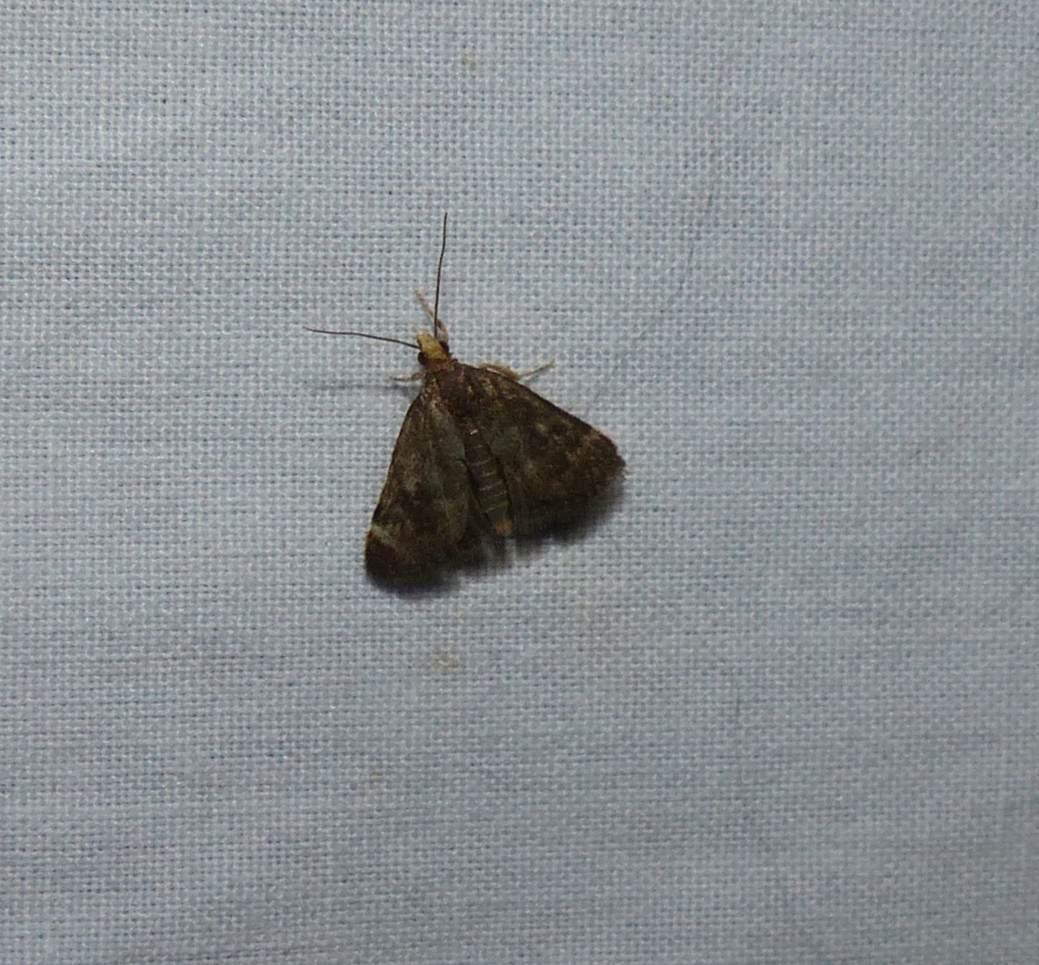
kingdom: Animalia
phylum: Arthropoda
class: Insecta
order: Lepidoptera
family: Crambidae
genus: Pyrausta
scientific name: Pyrausta merrickalis
